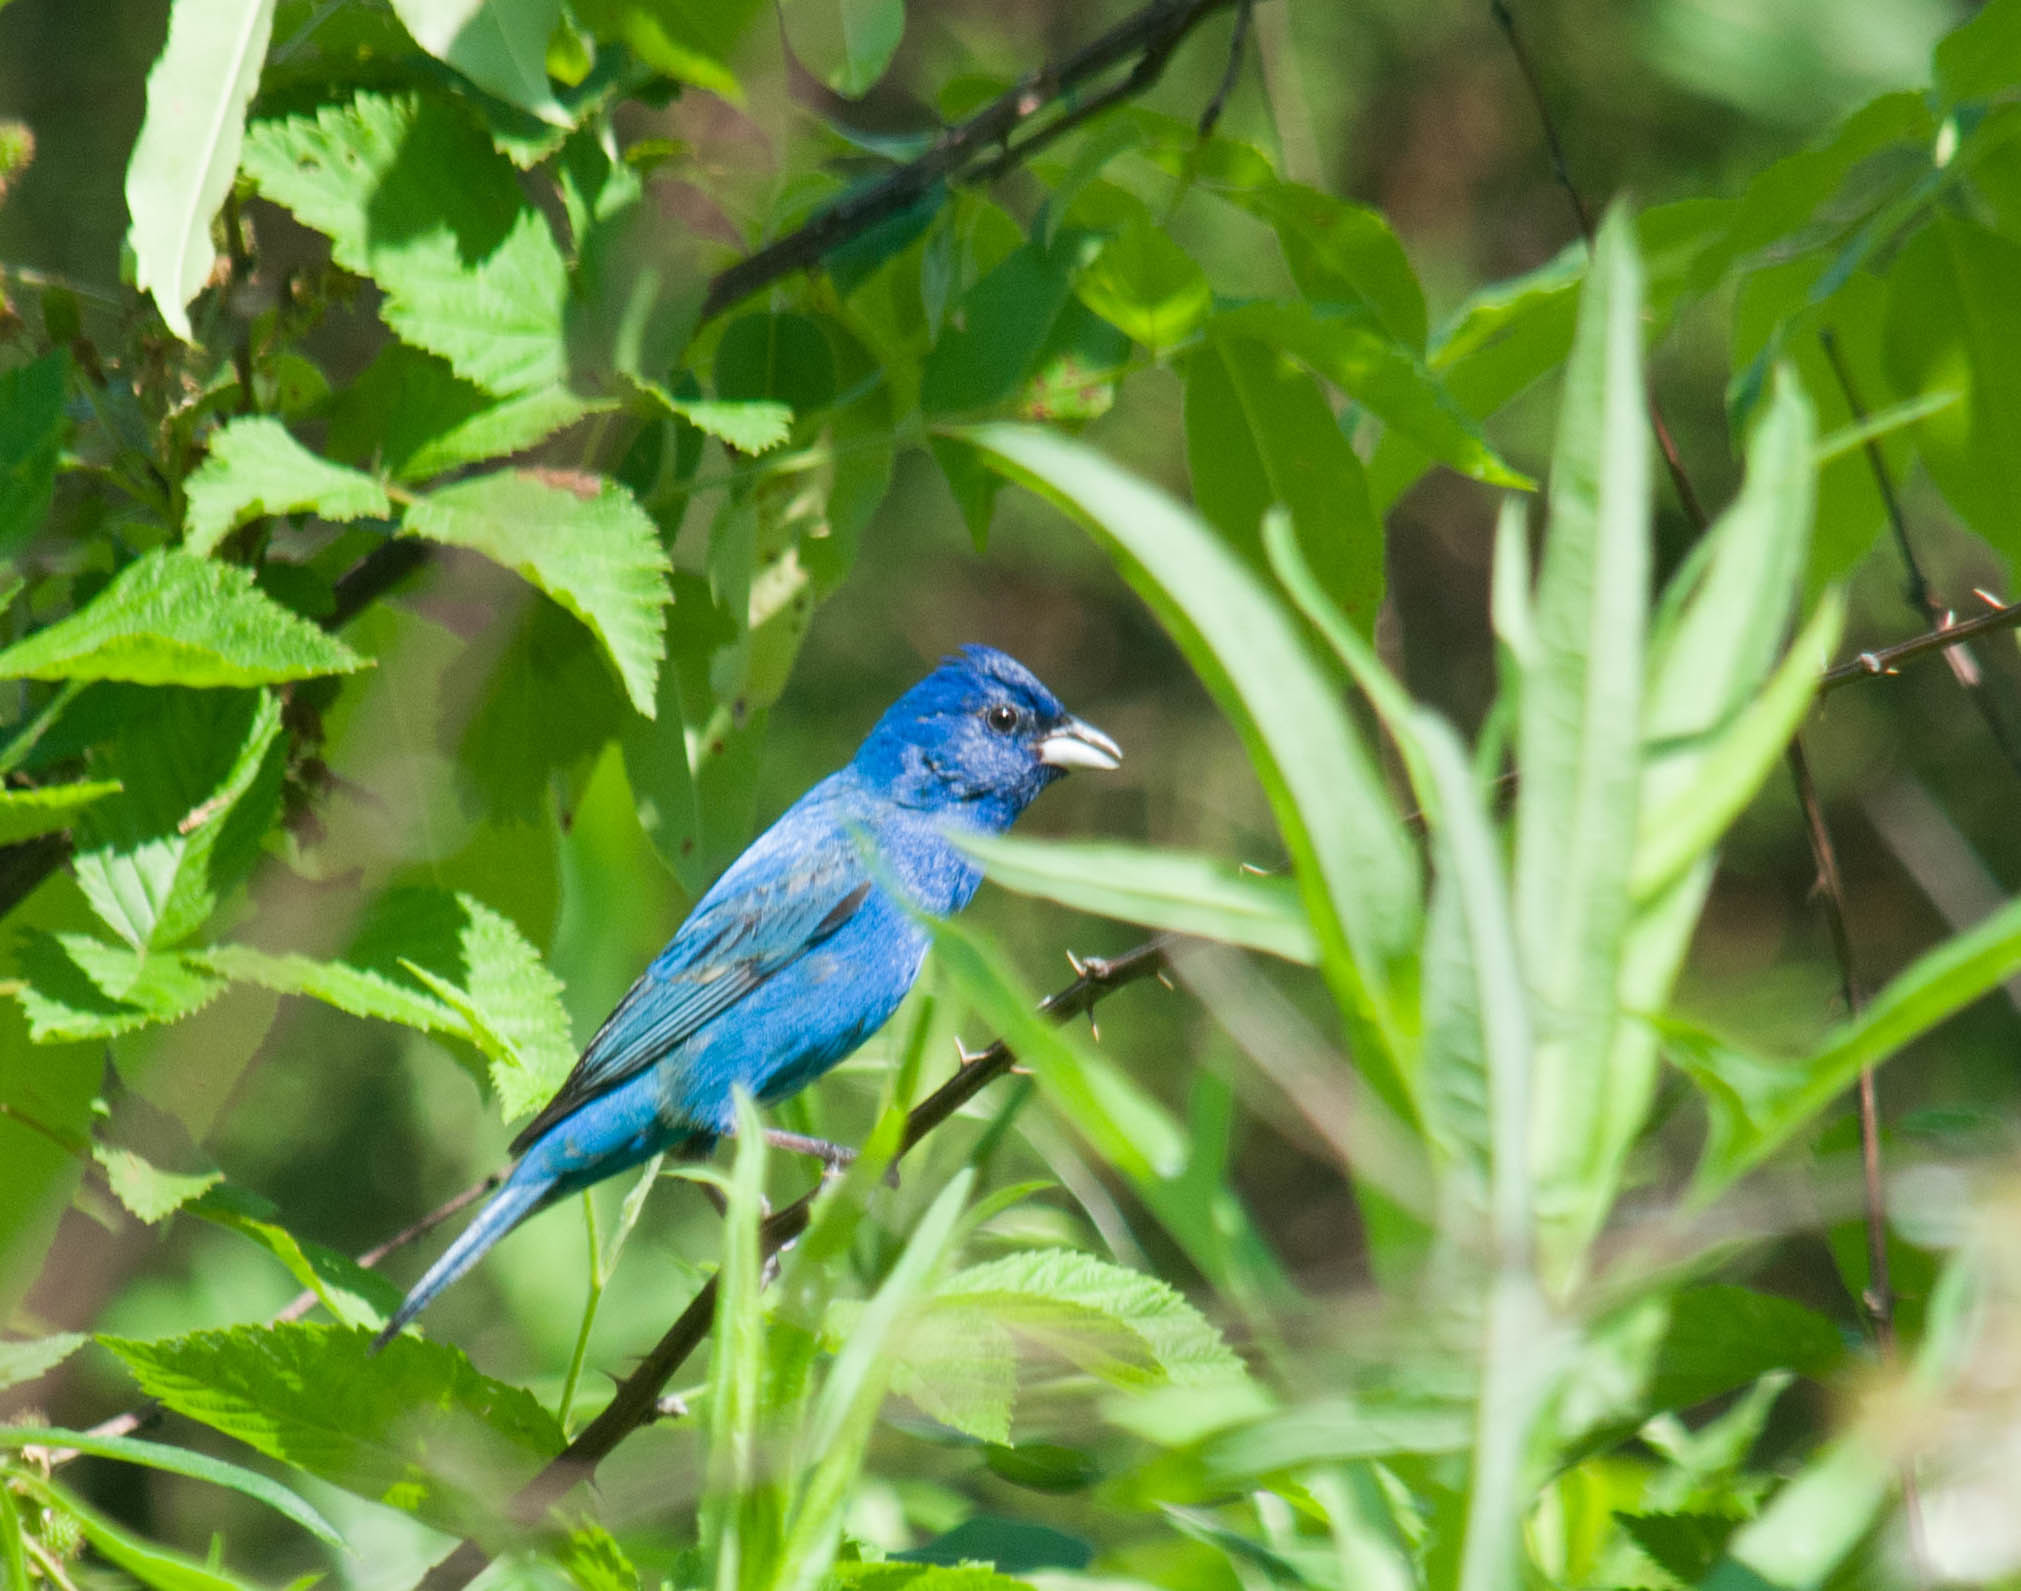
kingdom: Animalia
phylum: Chordata
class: Aves
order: Passeriformes
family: Cardinalidae
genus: Passerina
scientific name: Passerina cyanea
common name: Indigo bunting
